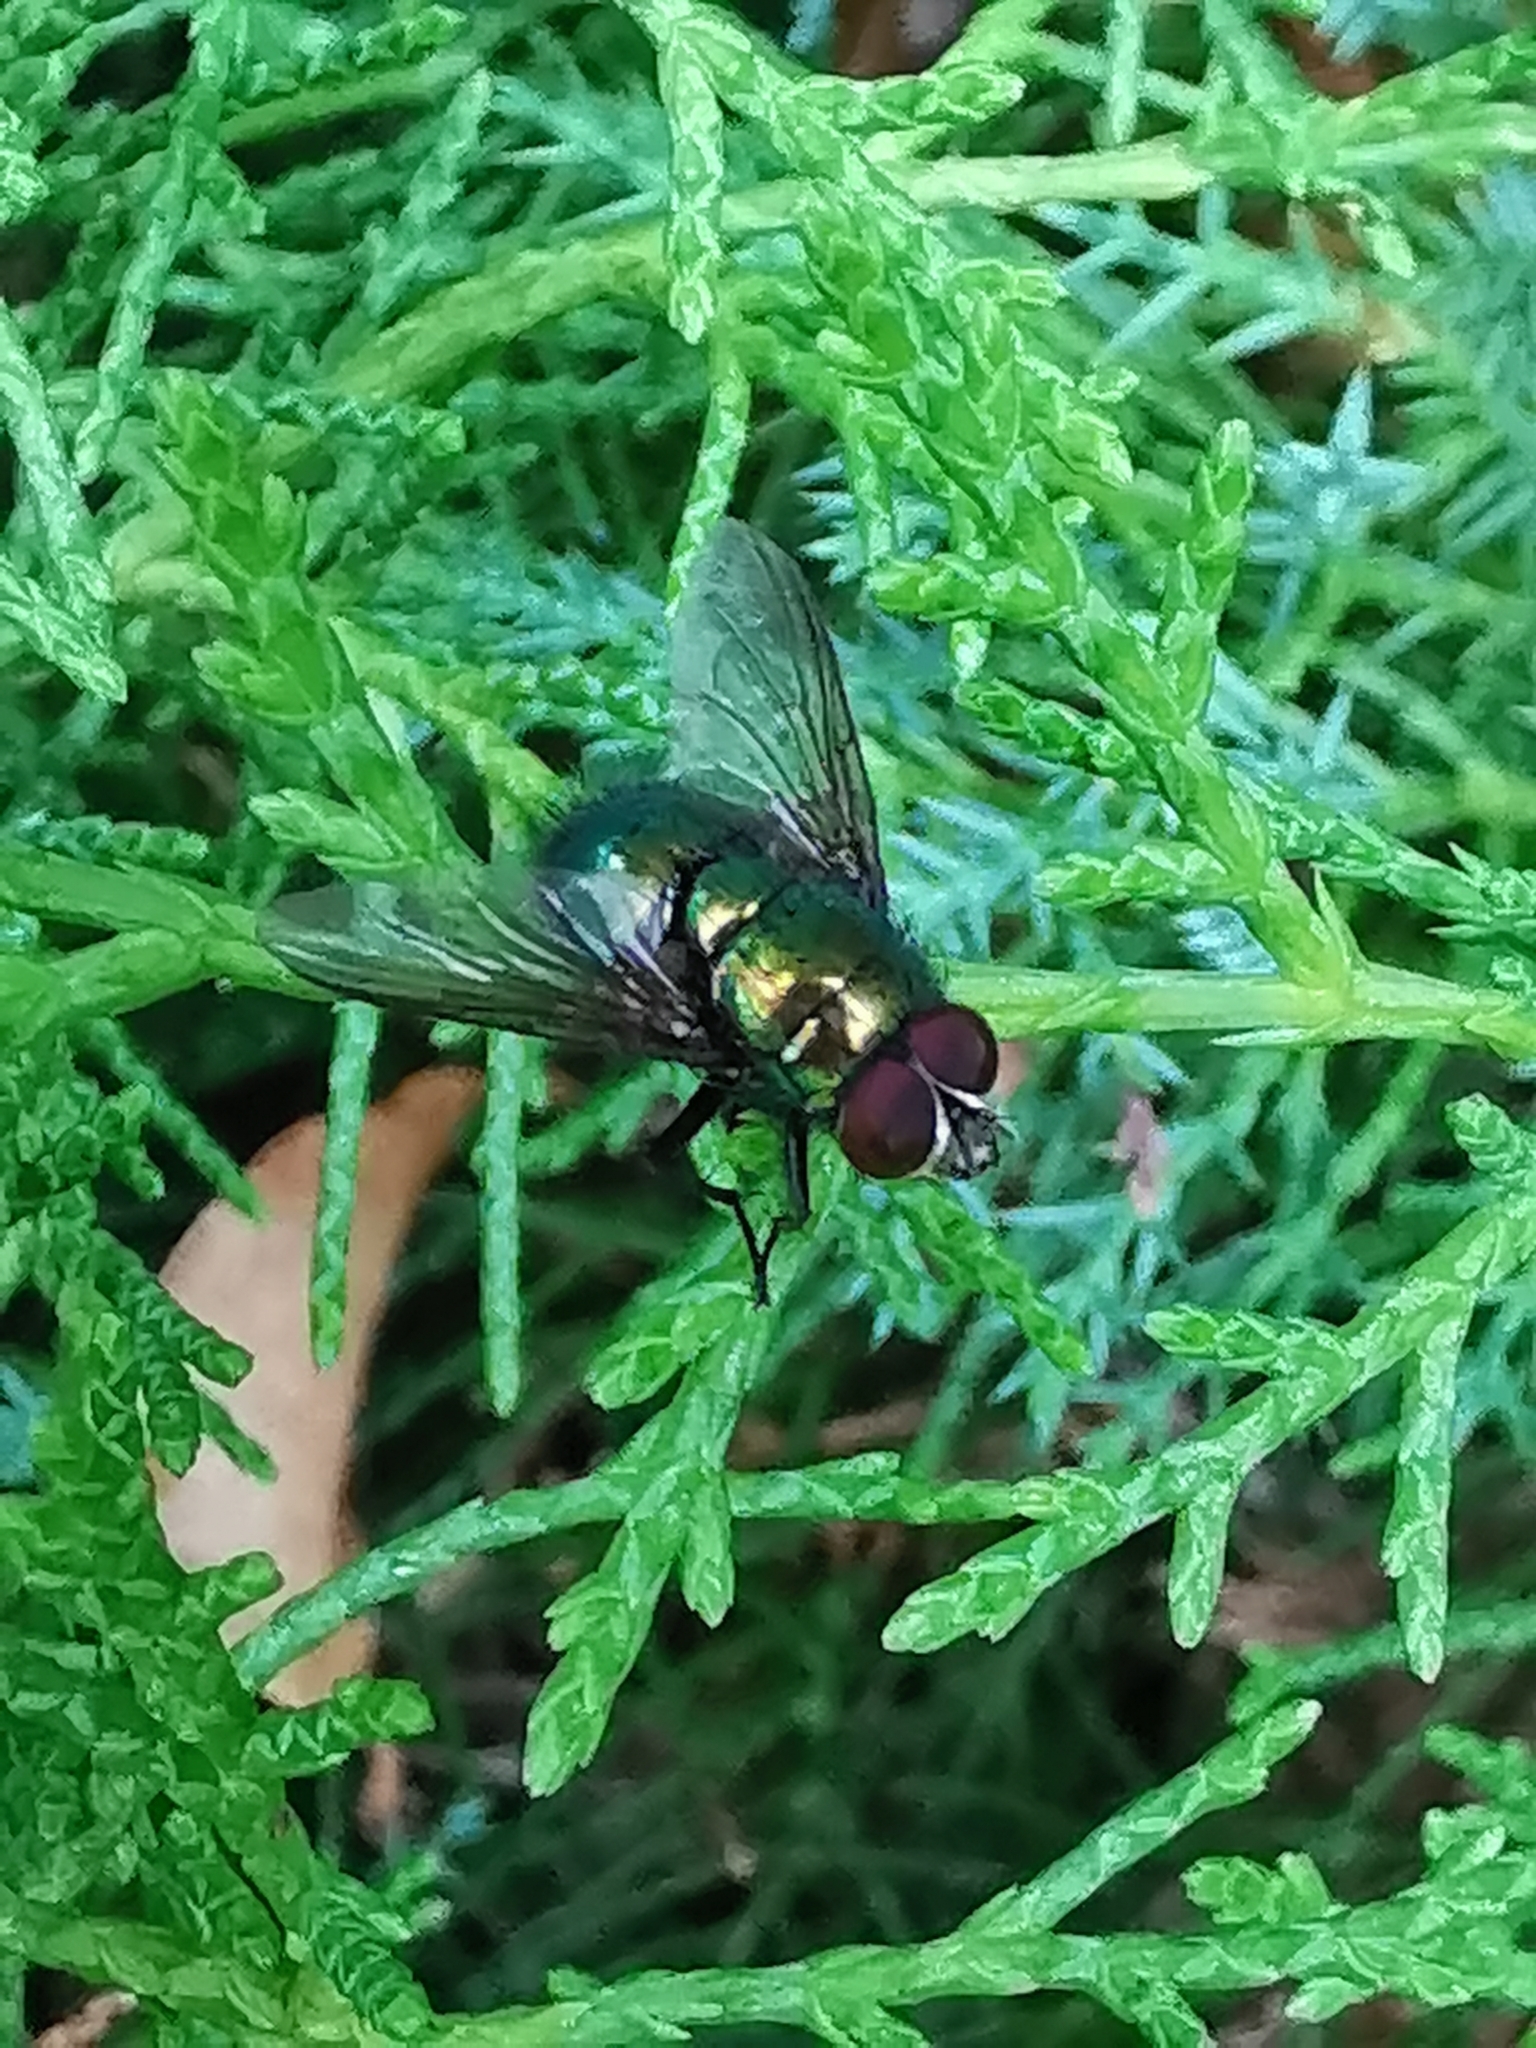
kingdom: Animalia
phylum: Arthropoda
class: Insecta
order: Diptera
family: Calliphoridae
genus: Lucilia
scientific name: Lucilia
